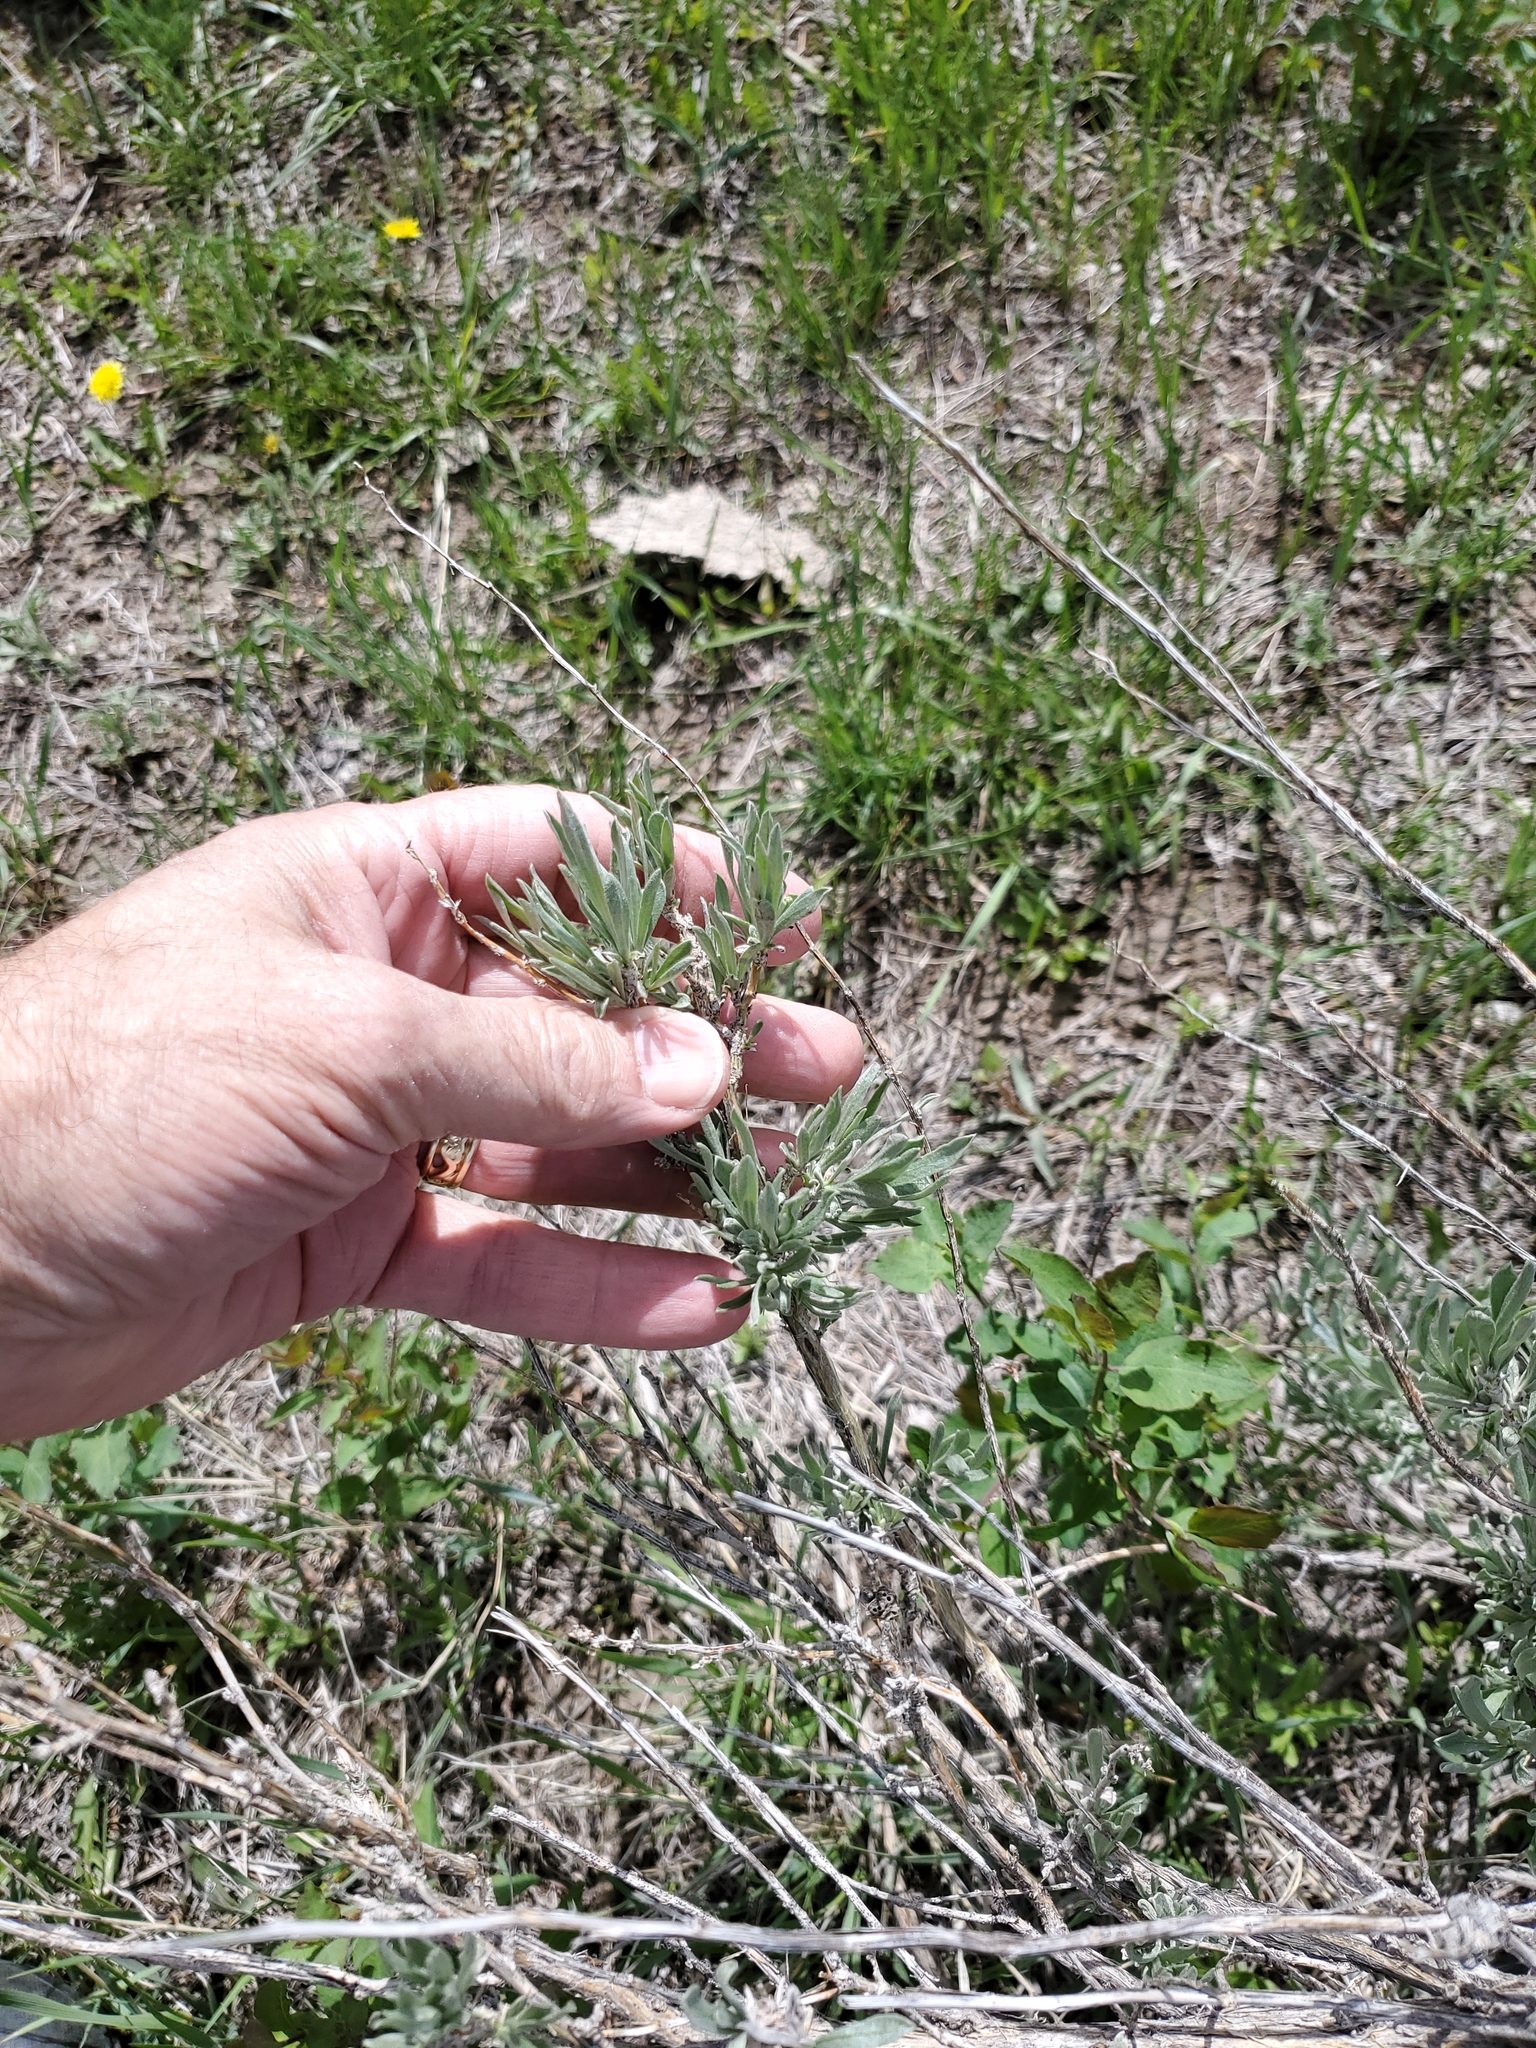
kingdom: Plantae
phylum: Tracheophyta
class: Magnoliopsida
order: Asterales
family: Asteraceae
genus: Artemisia
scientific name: Artemisia cana
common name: Silver sagebrush
